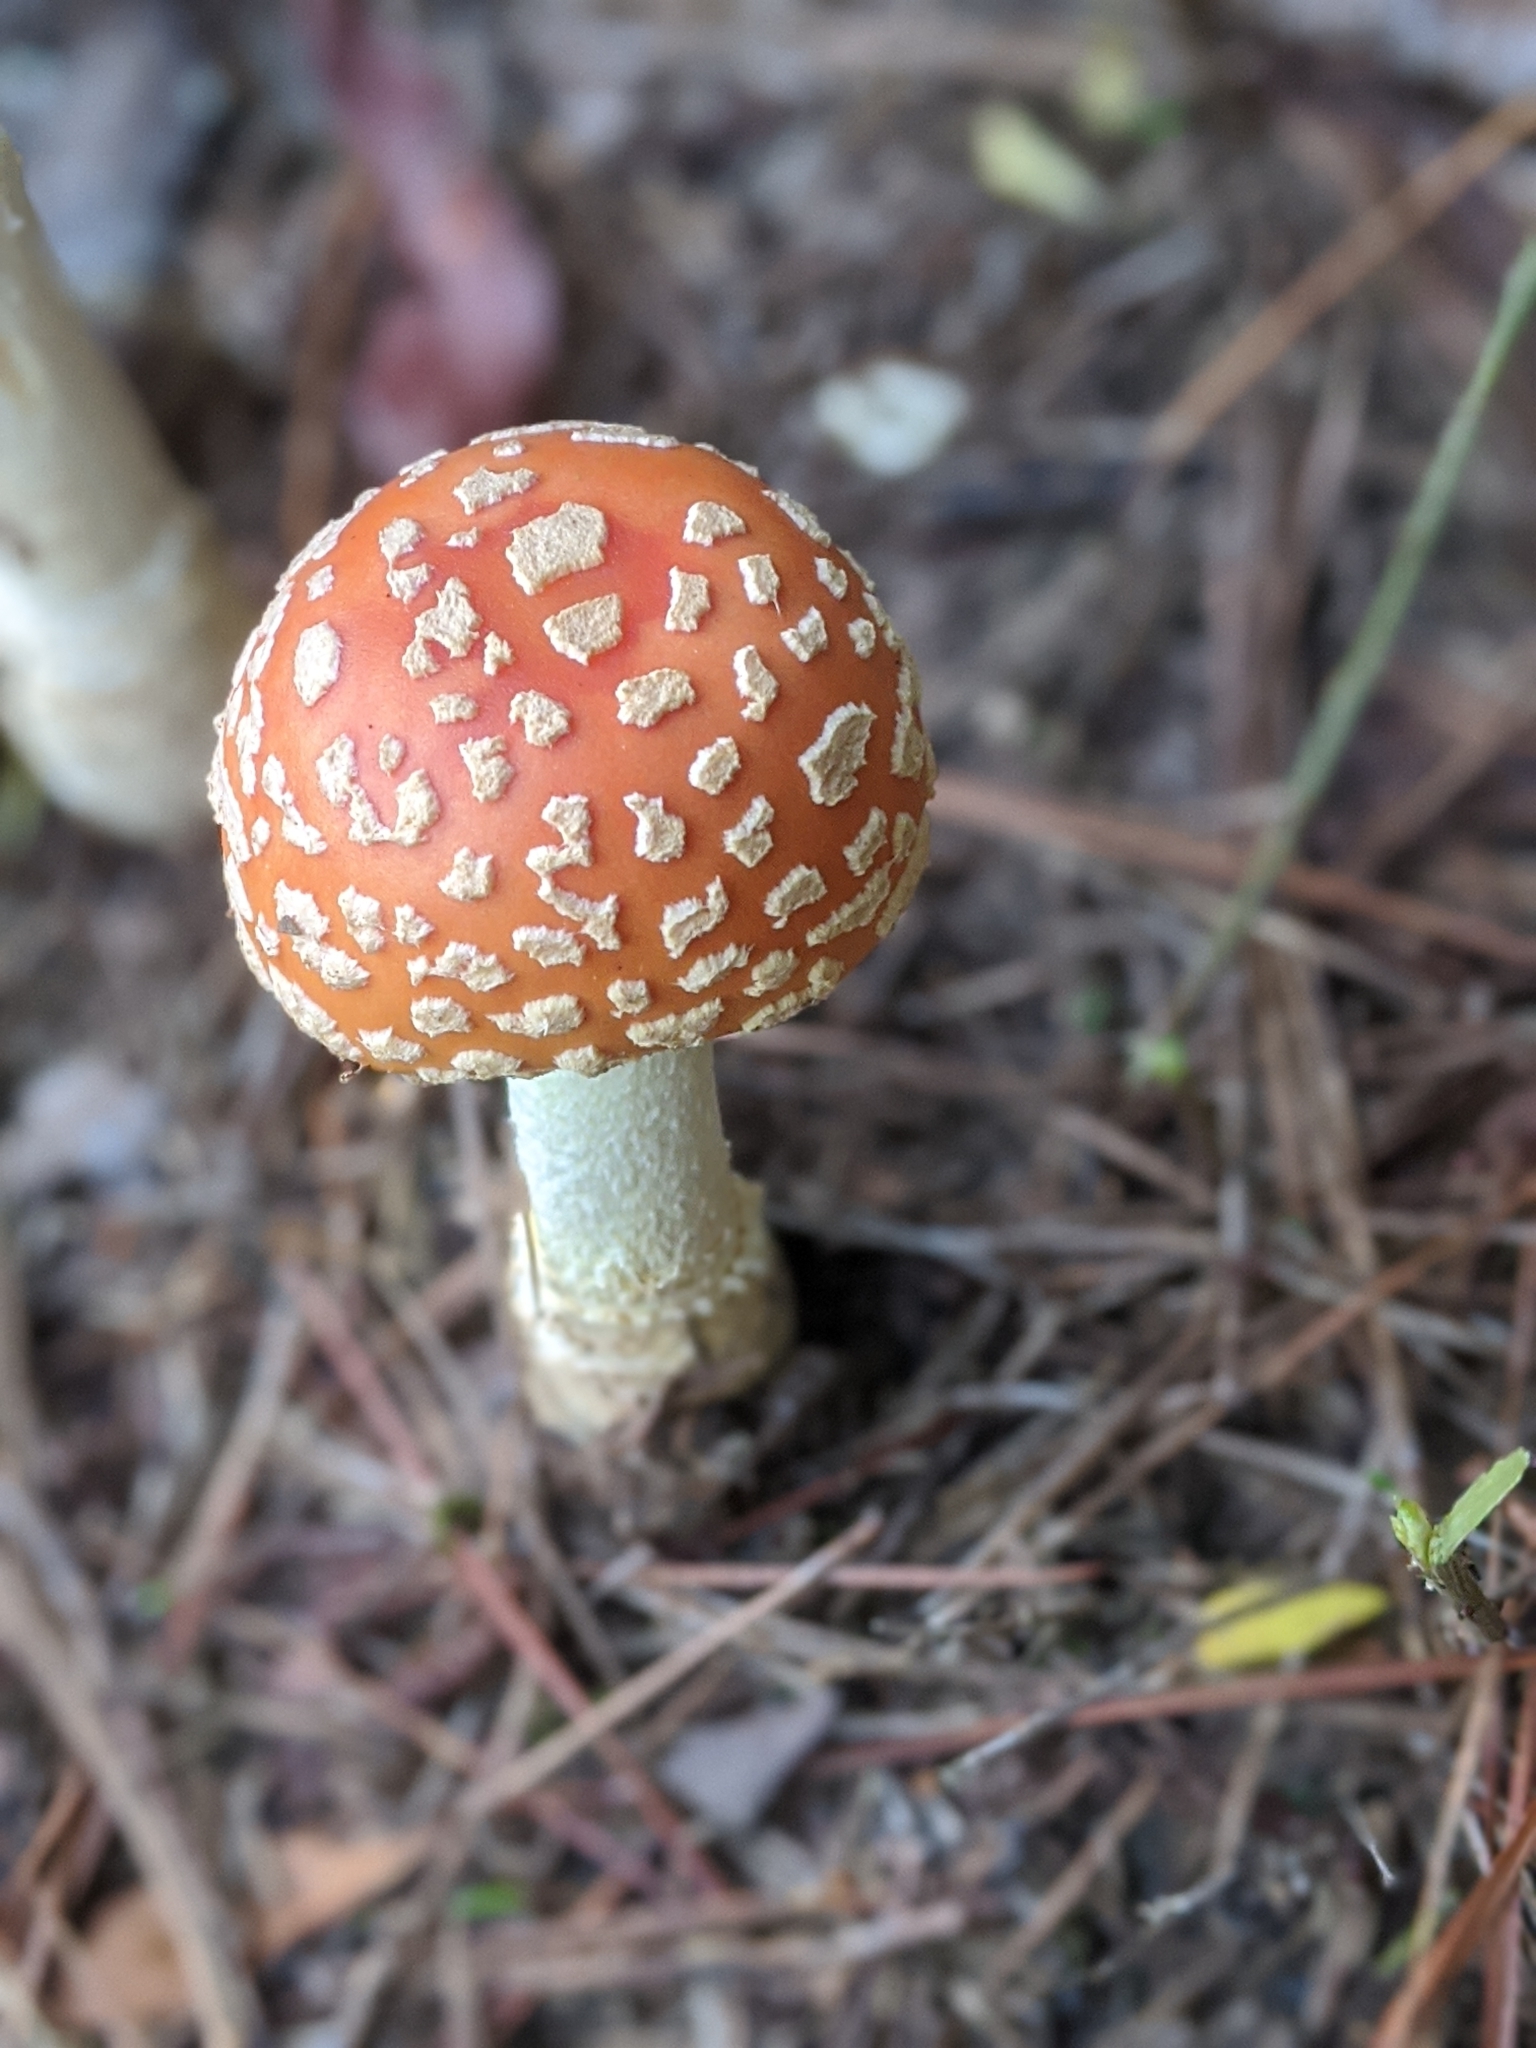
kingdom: Fungi
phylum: Basidiomycota
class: Agaricomycetes
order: Agaricales
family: Amanitaceae
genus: Amanita
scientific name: Amanita persicina
